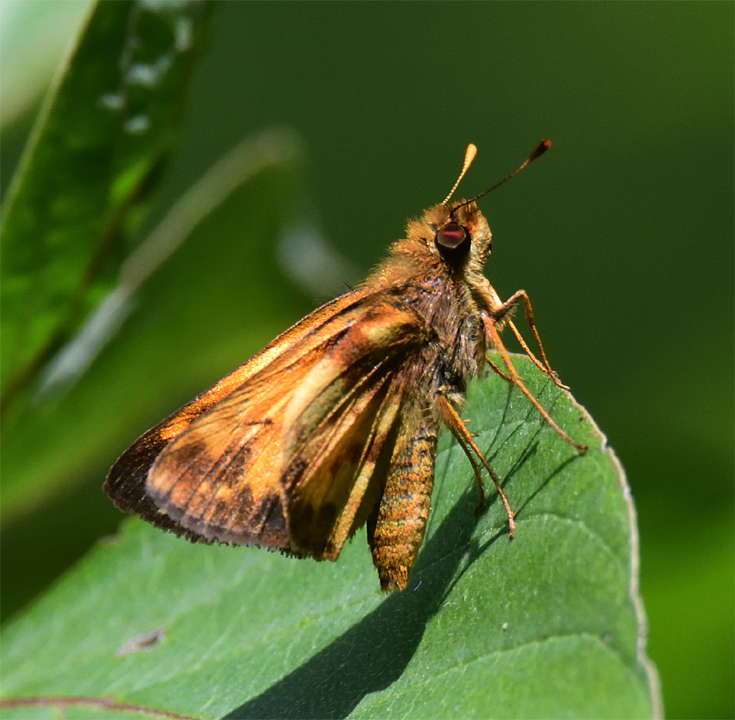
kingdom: Animalia
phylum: Arthropoda
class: Insecta
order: Lepidoptera
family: Hesperiidae
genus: Lon
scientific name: Lon zabulon
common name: Zabulon skipper
